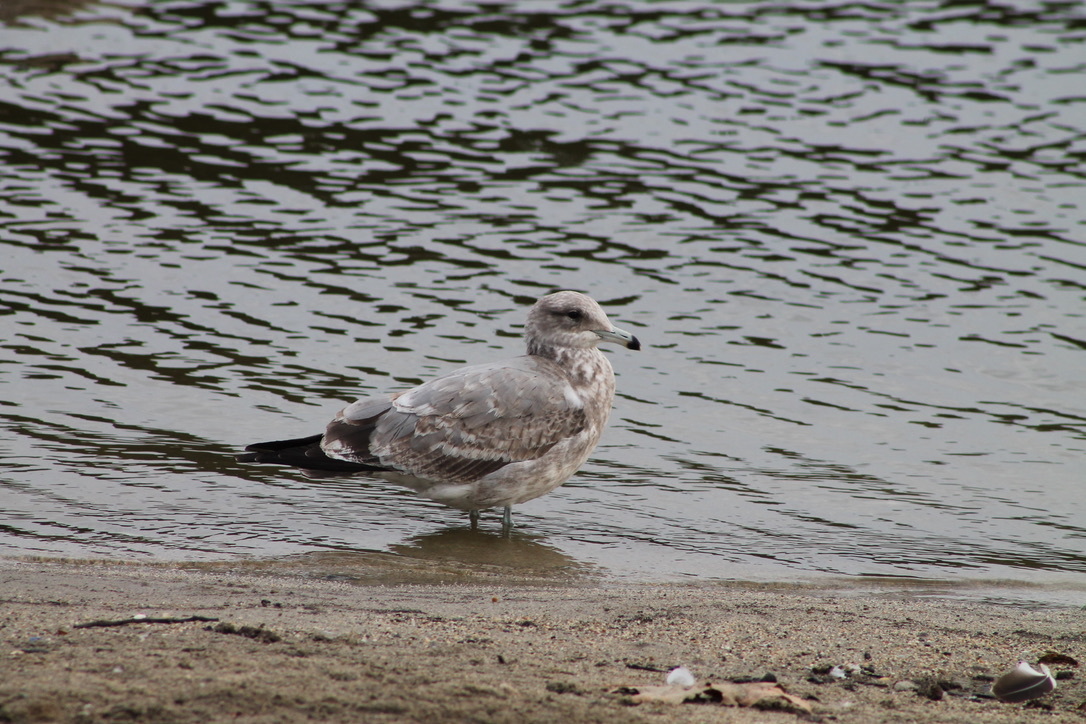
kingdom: Animalia
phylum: Chordata
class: Aves
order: Charadriiformes
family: Laridae
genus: Larus
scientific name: Larus californicus
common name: California gull
